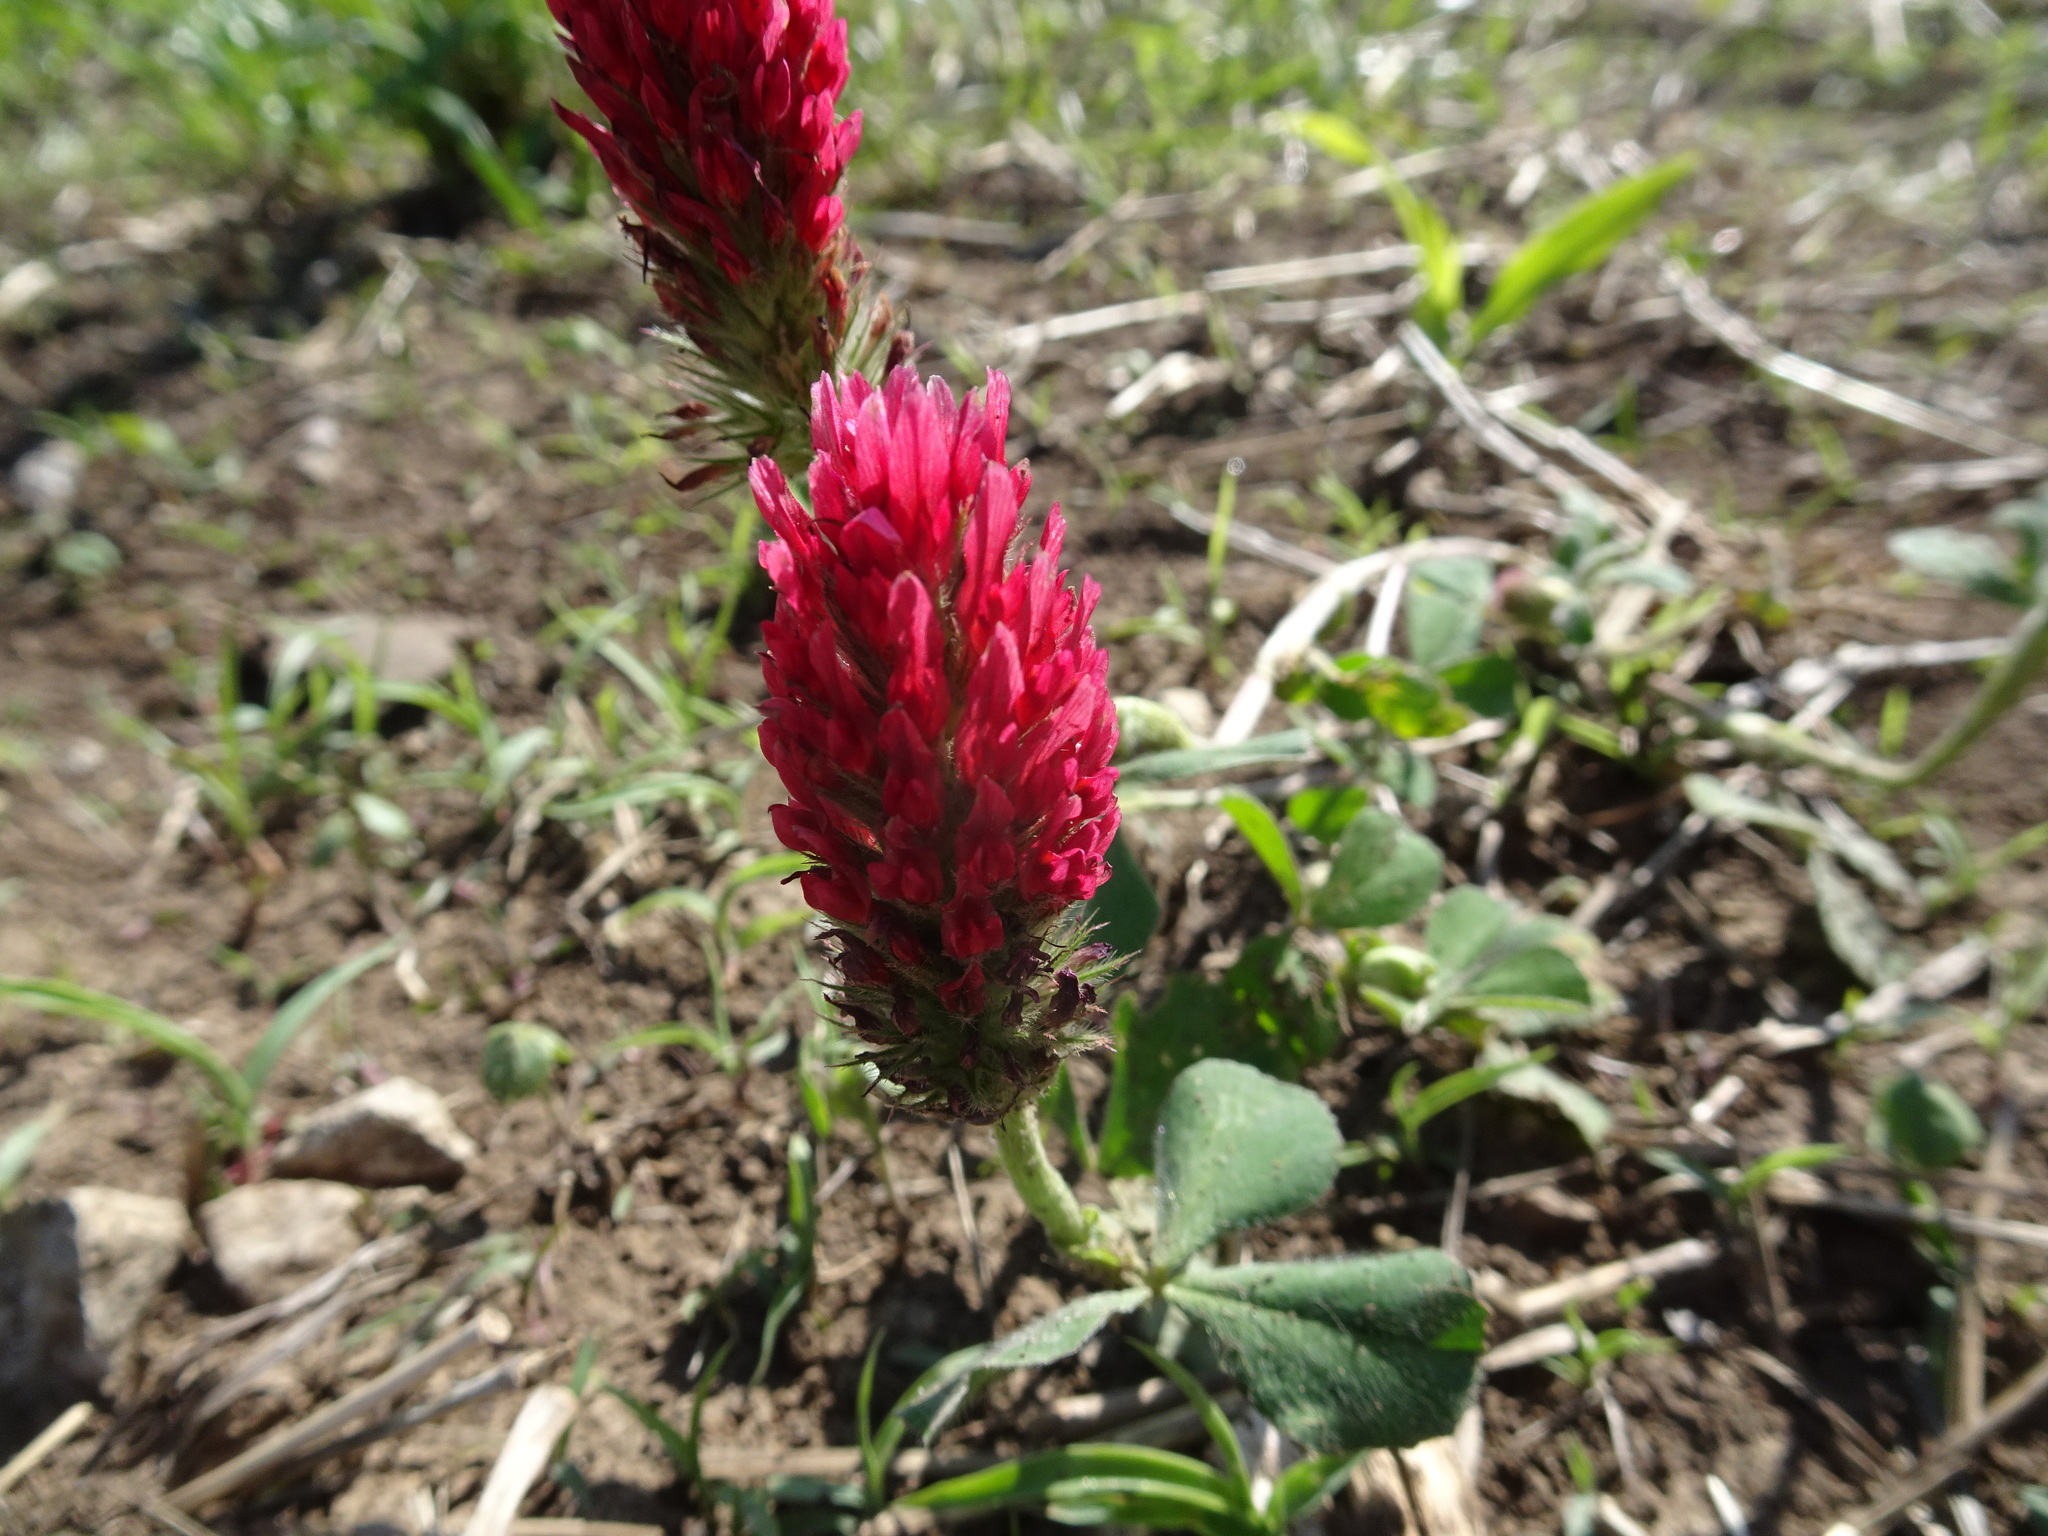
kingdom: Plantae
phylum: Tracheophyta
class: Magnoliopsida
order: Fabales
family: Fabaceae
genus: Trifolium
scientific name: Trifolium incarnatum
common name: Crimson clover
